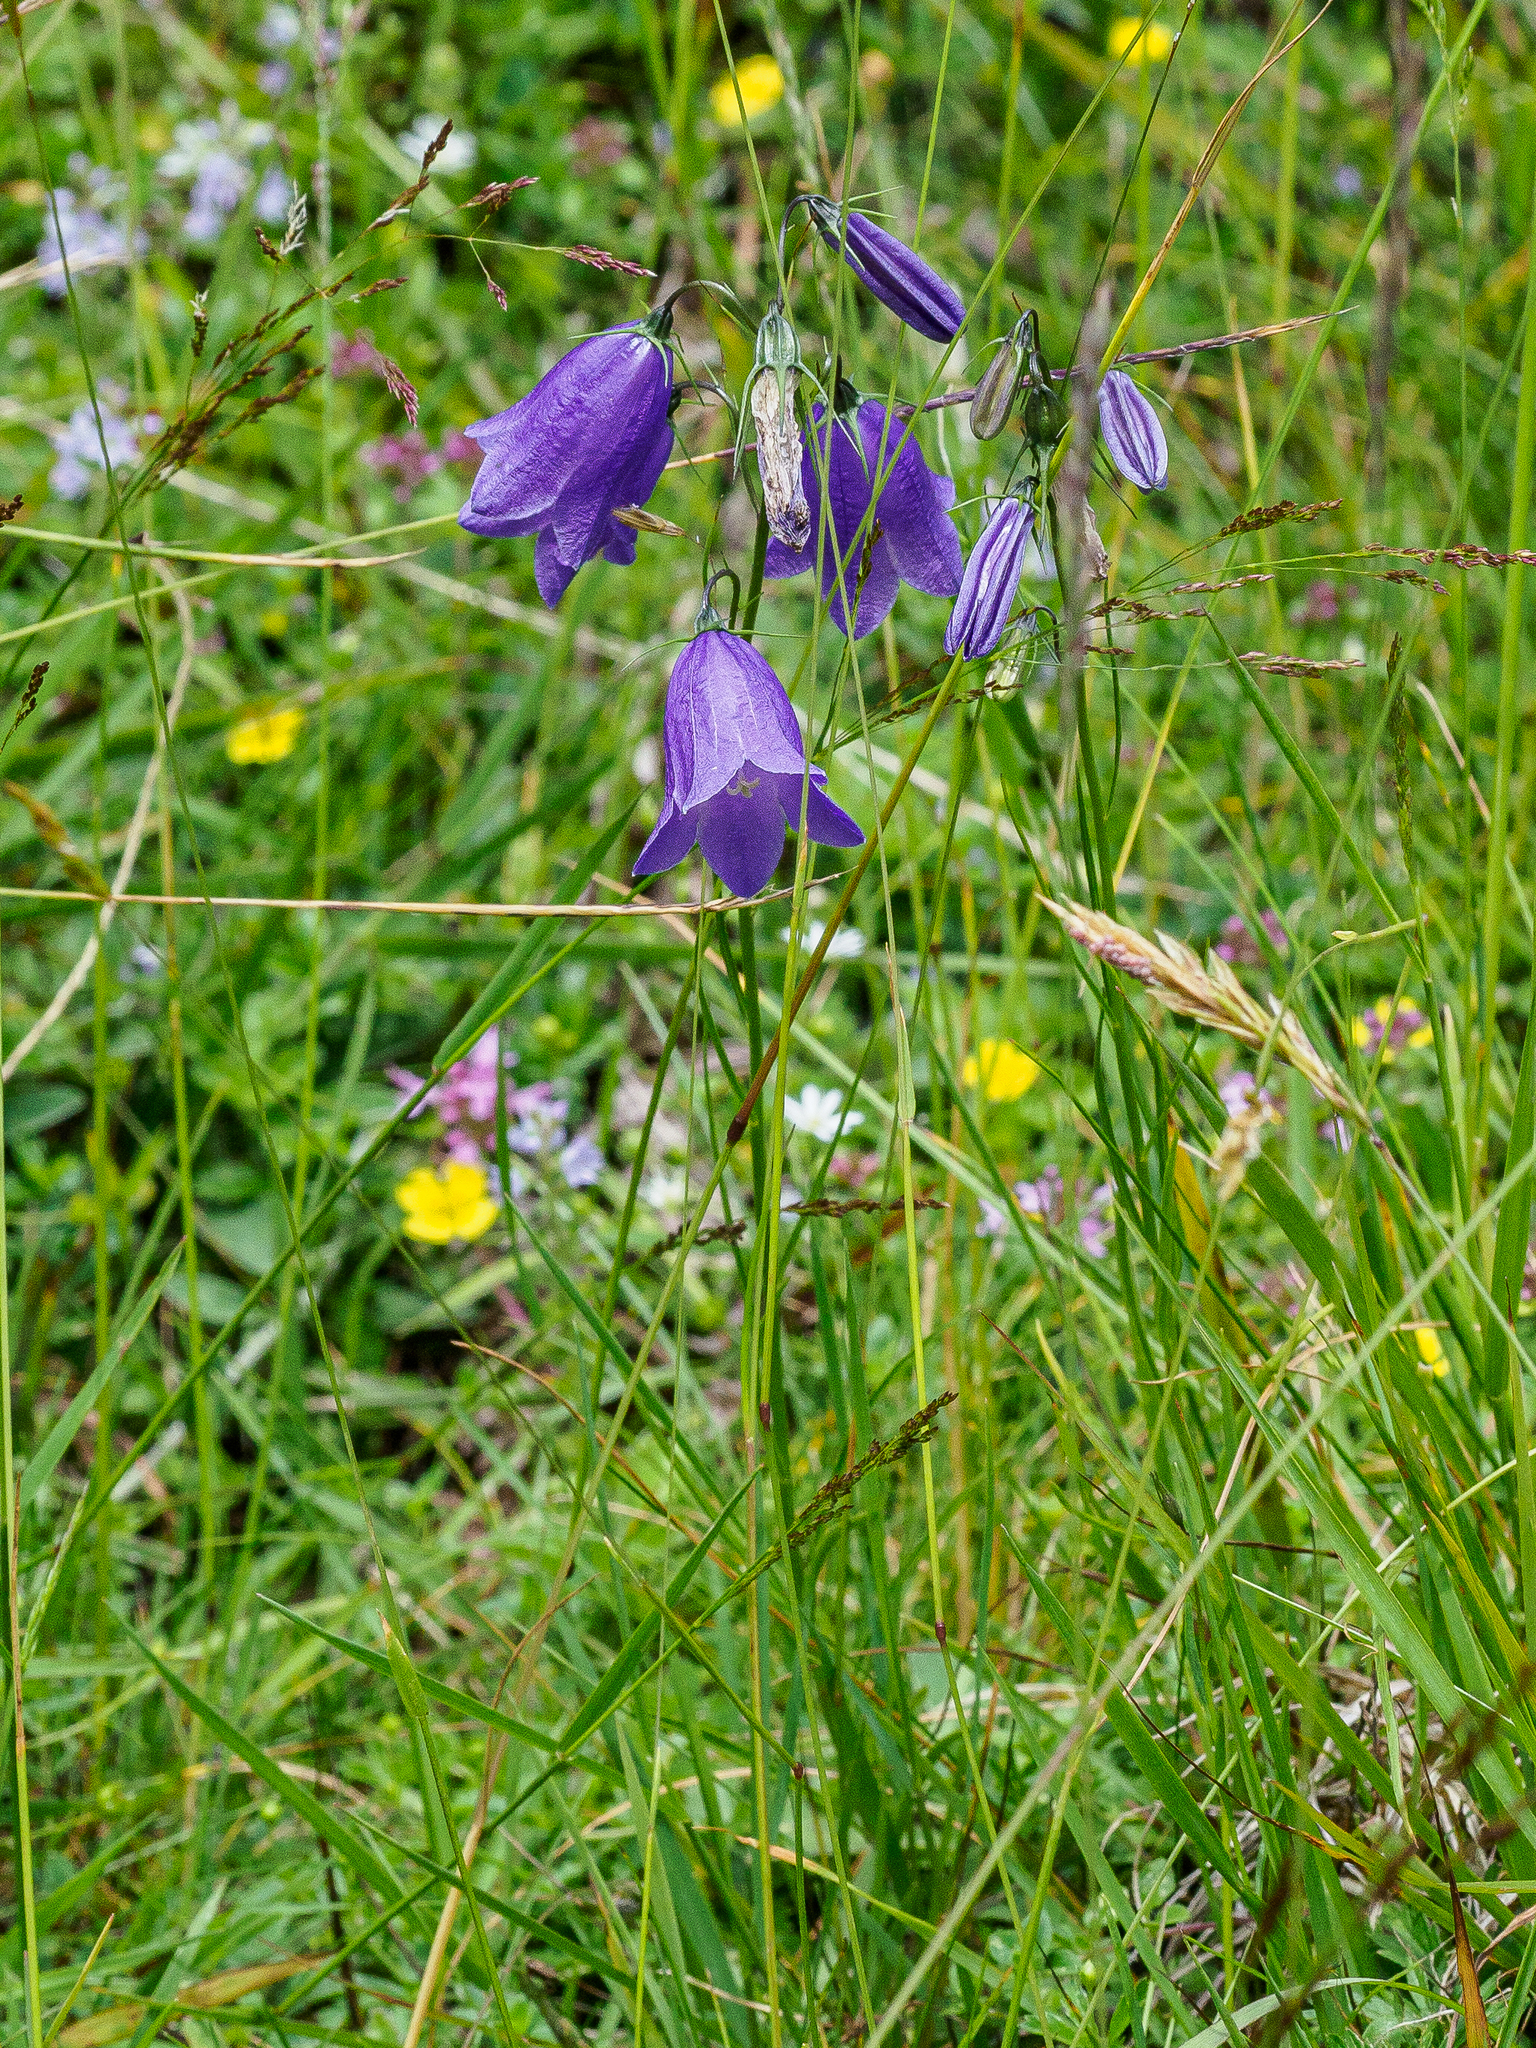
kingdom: Plantae
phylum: Tracheophyta
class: Magnoliopsida
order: Asterales
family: Campanulaceae
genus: Campanula
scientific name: Campanula scheuchzeri
